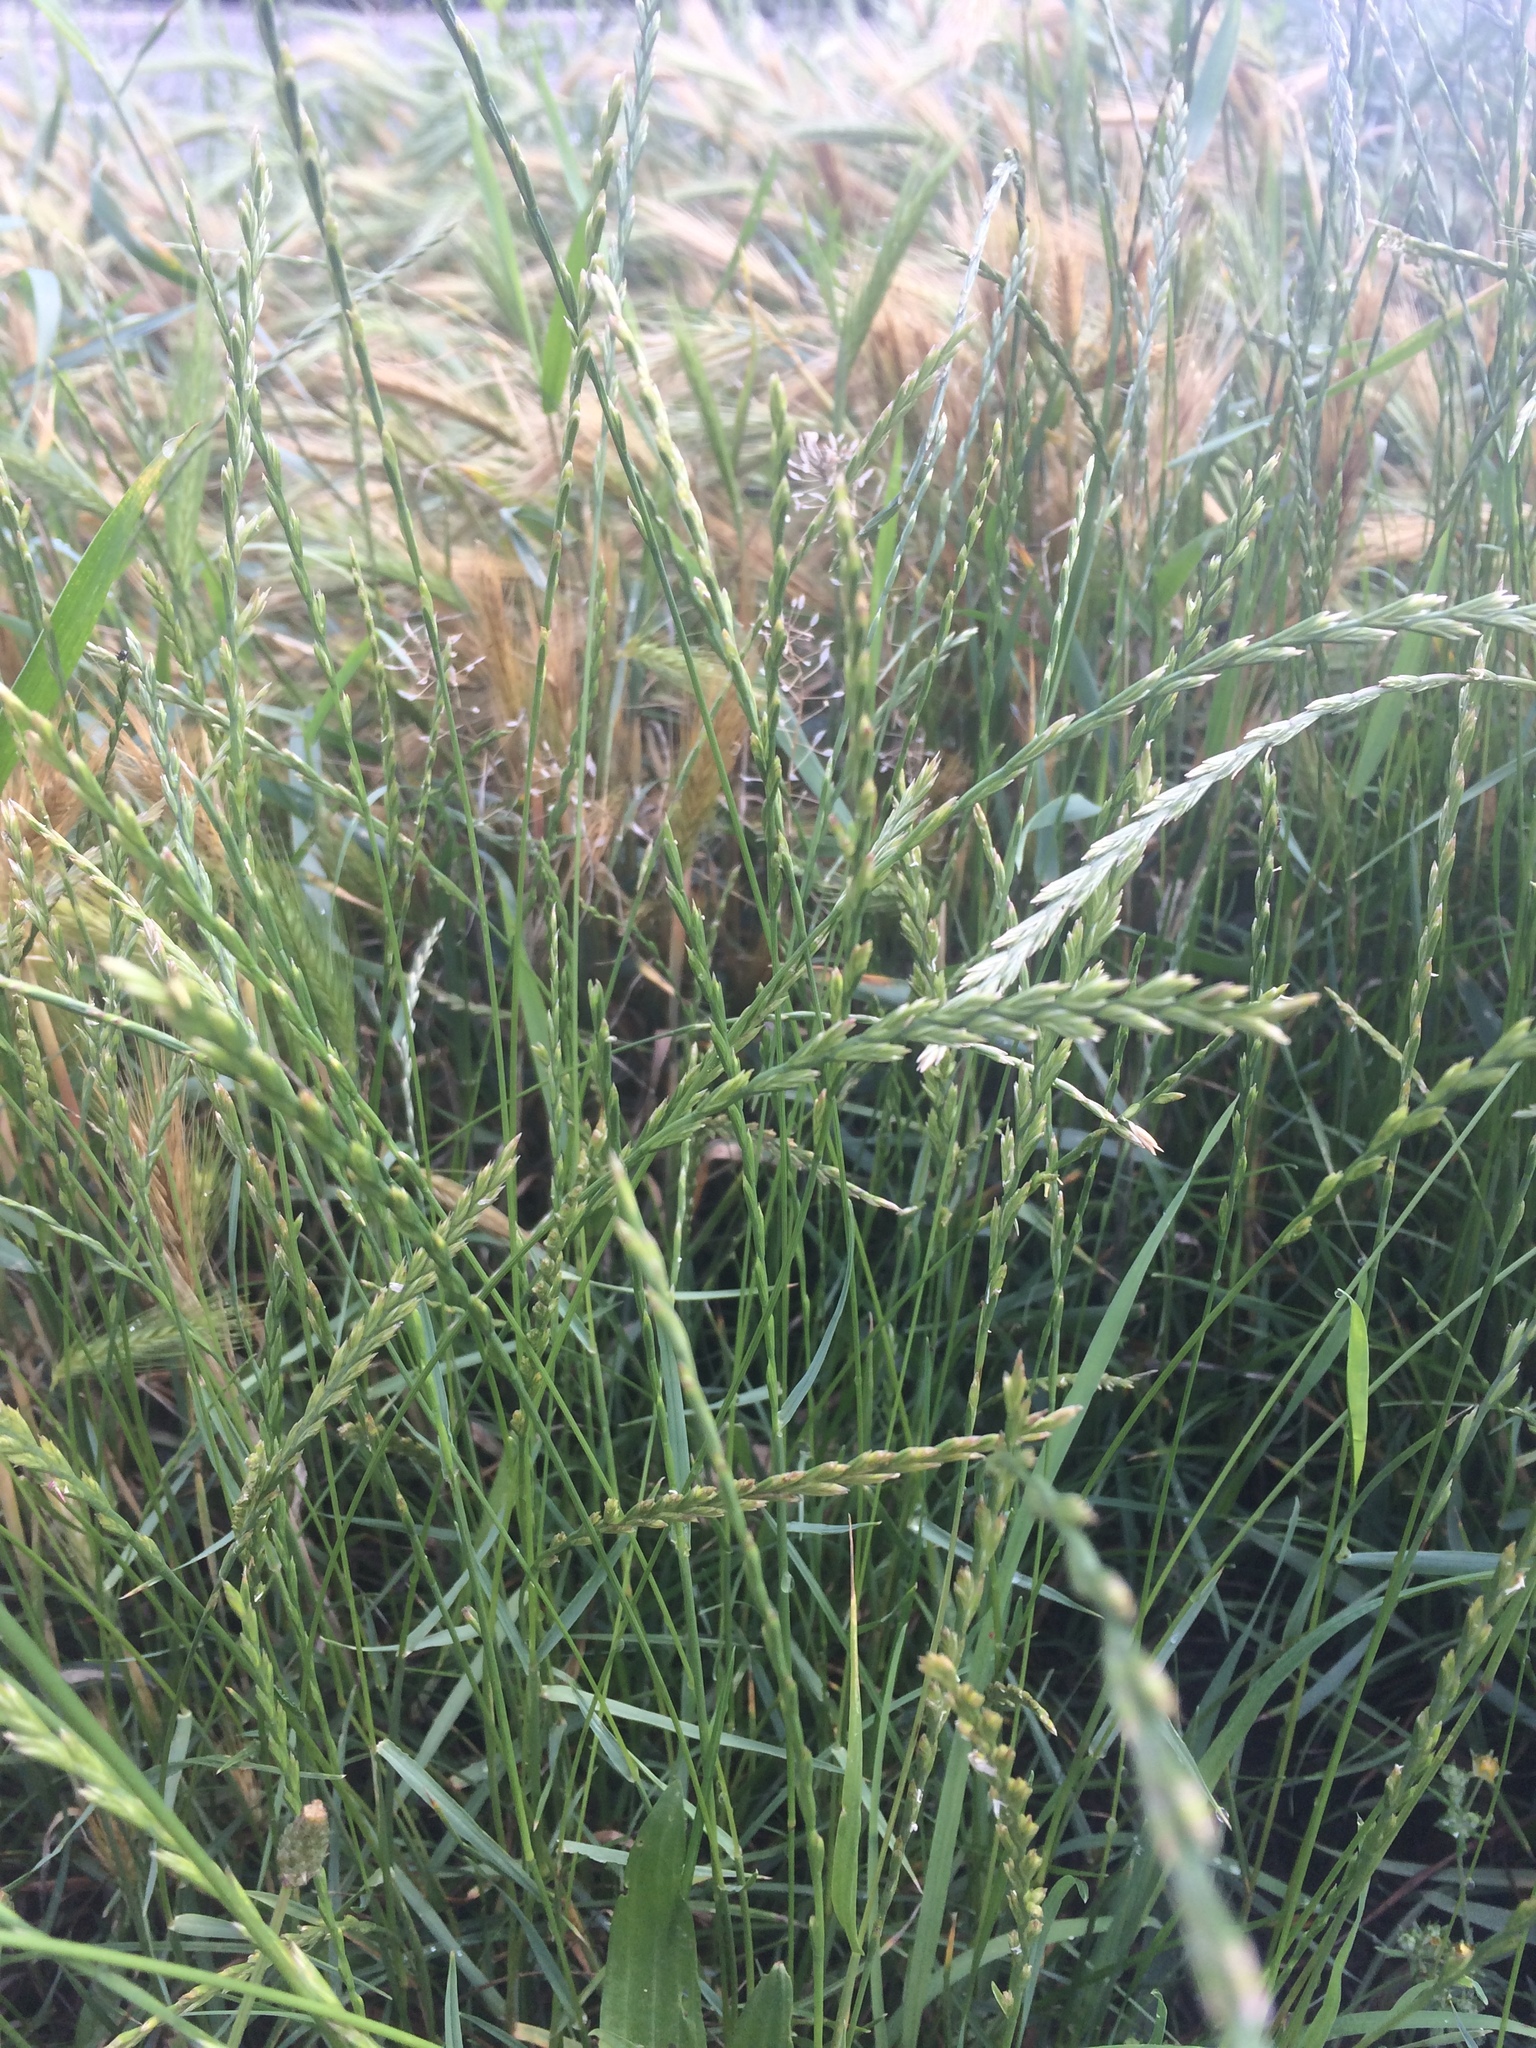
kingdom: Plantae
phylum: Tracheophyta
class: Liliopsida
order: Poales
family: Poaceae
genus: Lolium
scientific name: Lolium perenne
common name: Perennial ryegrass
